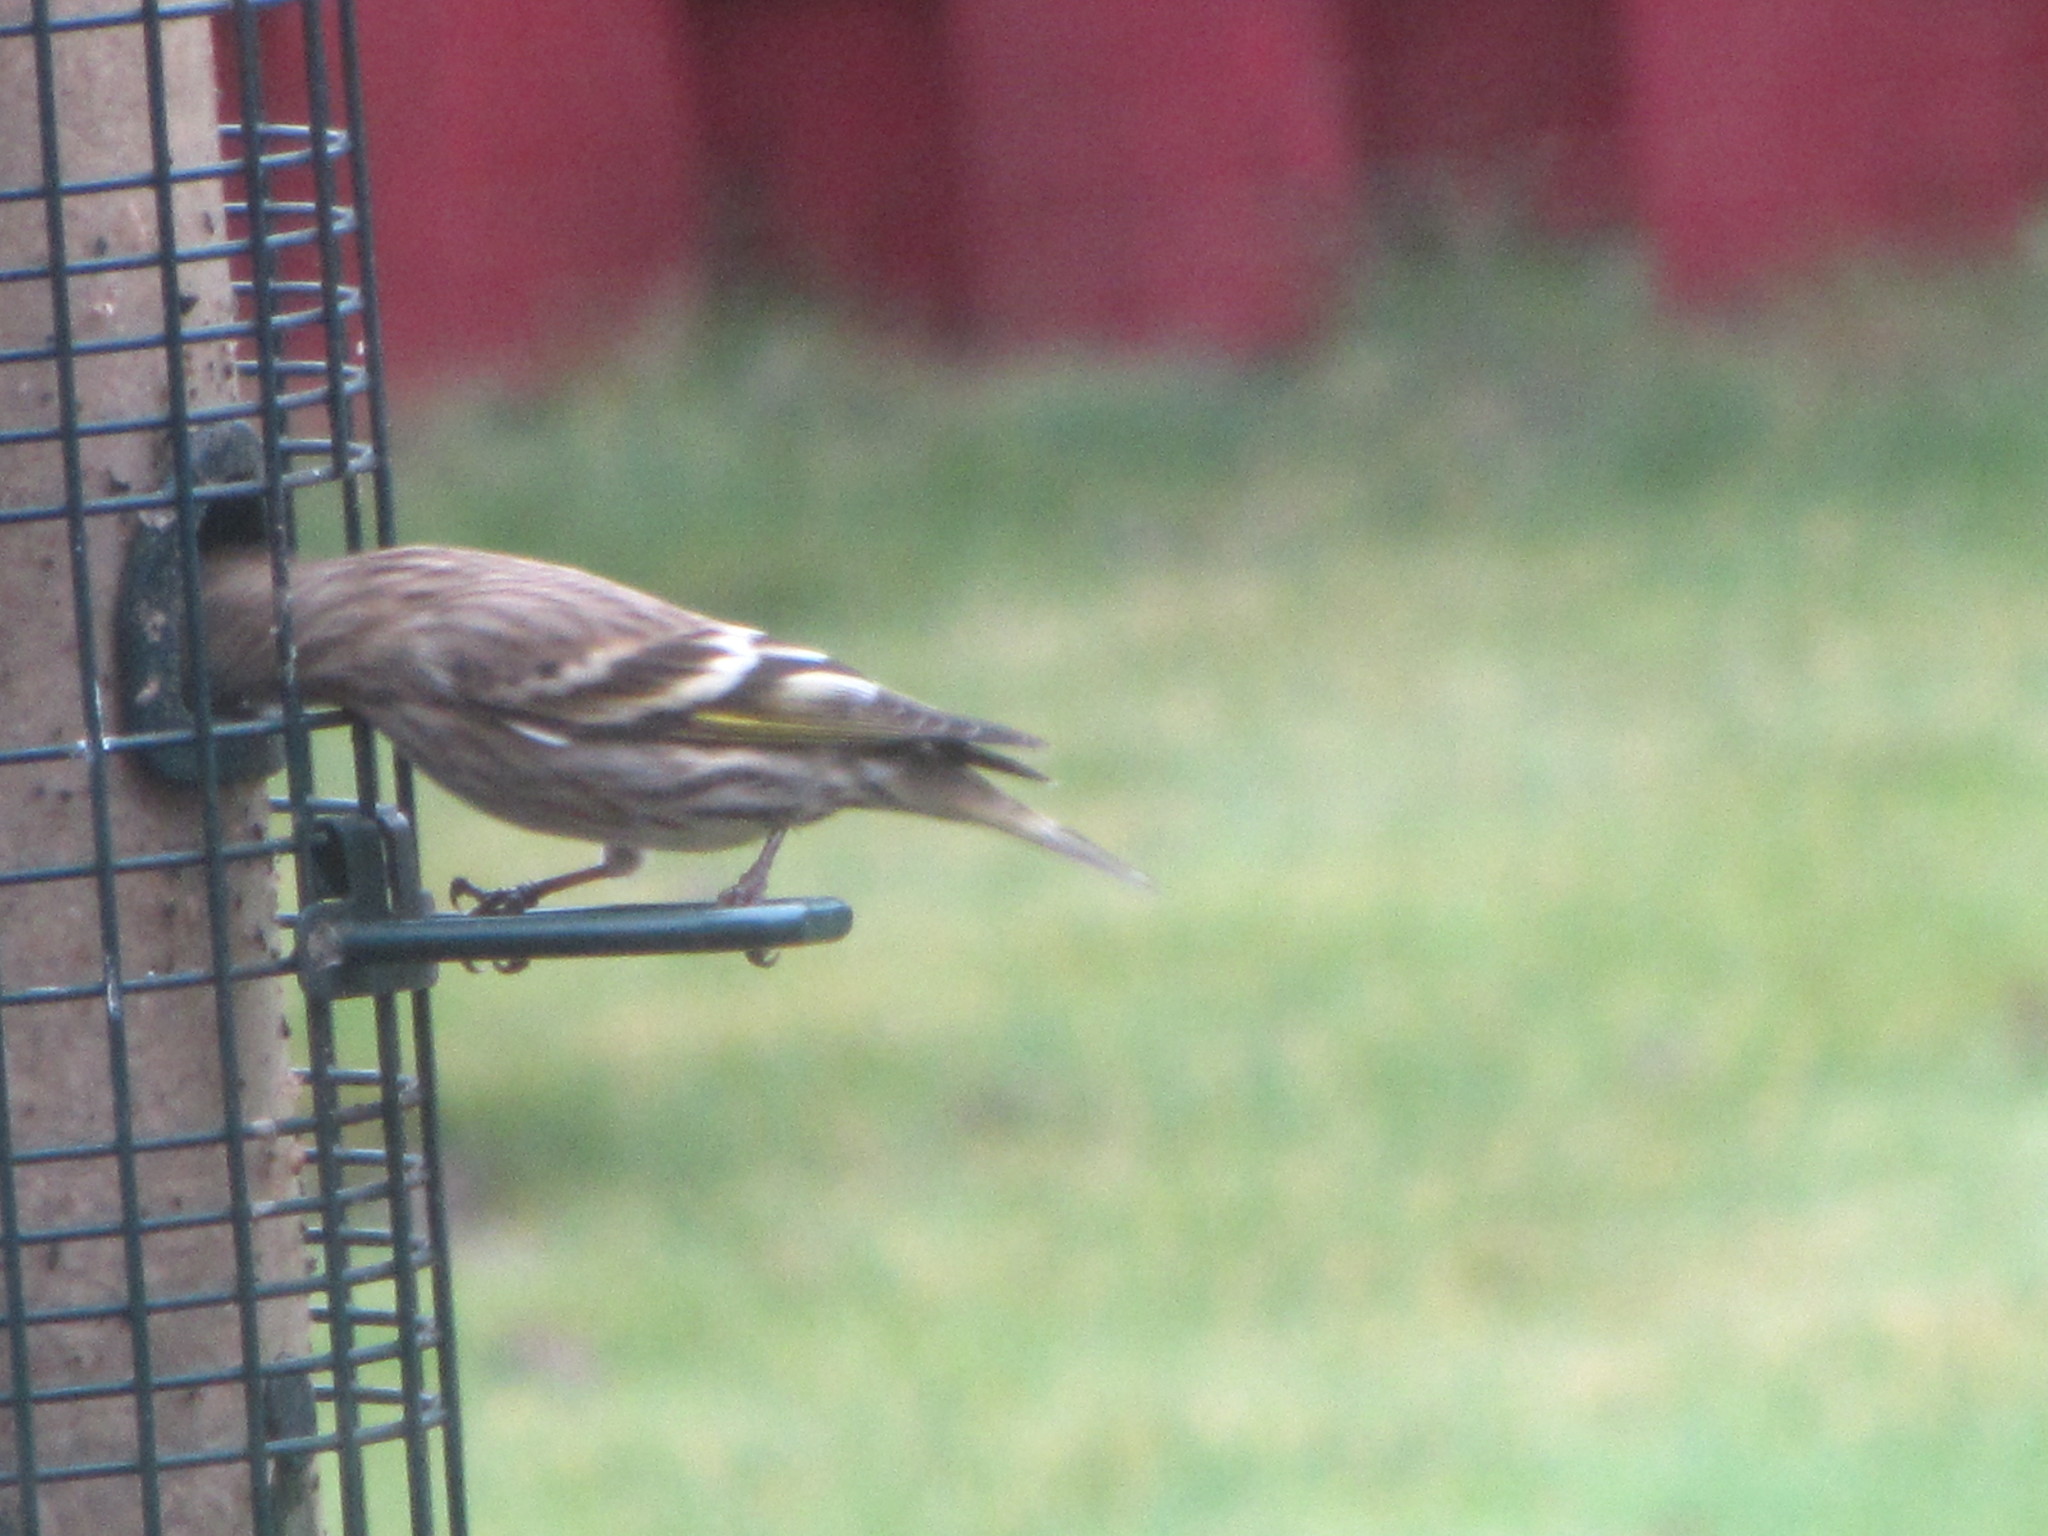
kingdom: Animalia
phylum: Chordata
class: Aves
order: Passeriformes
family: Fringillidae
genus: Spinus
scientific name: Spinus pinus
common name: Pine siskin
